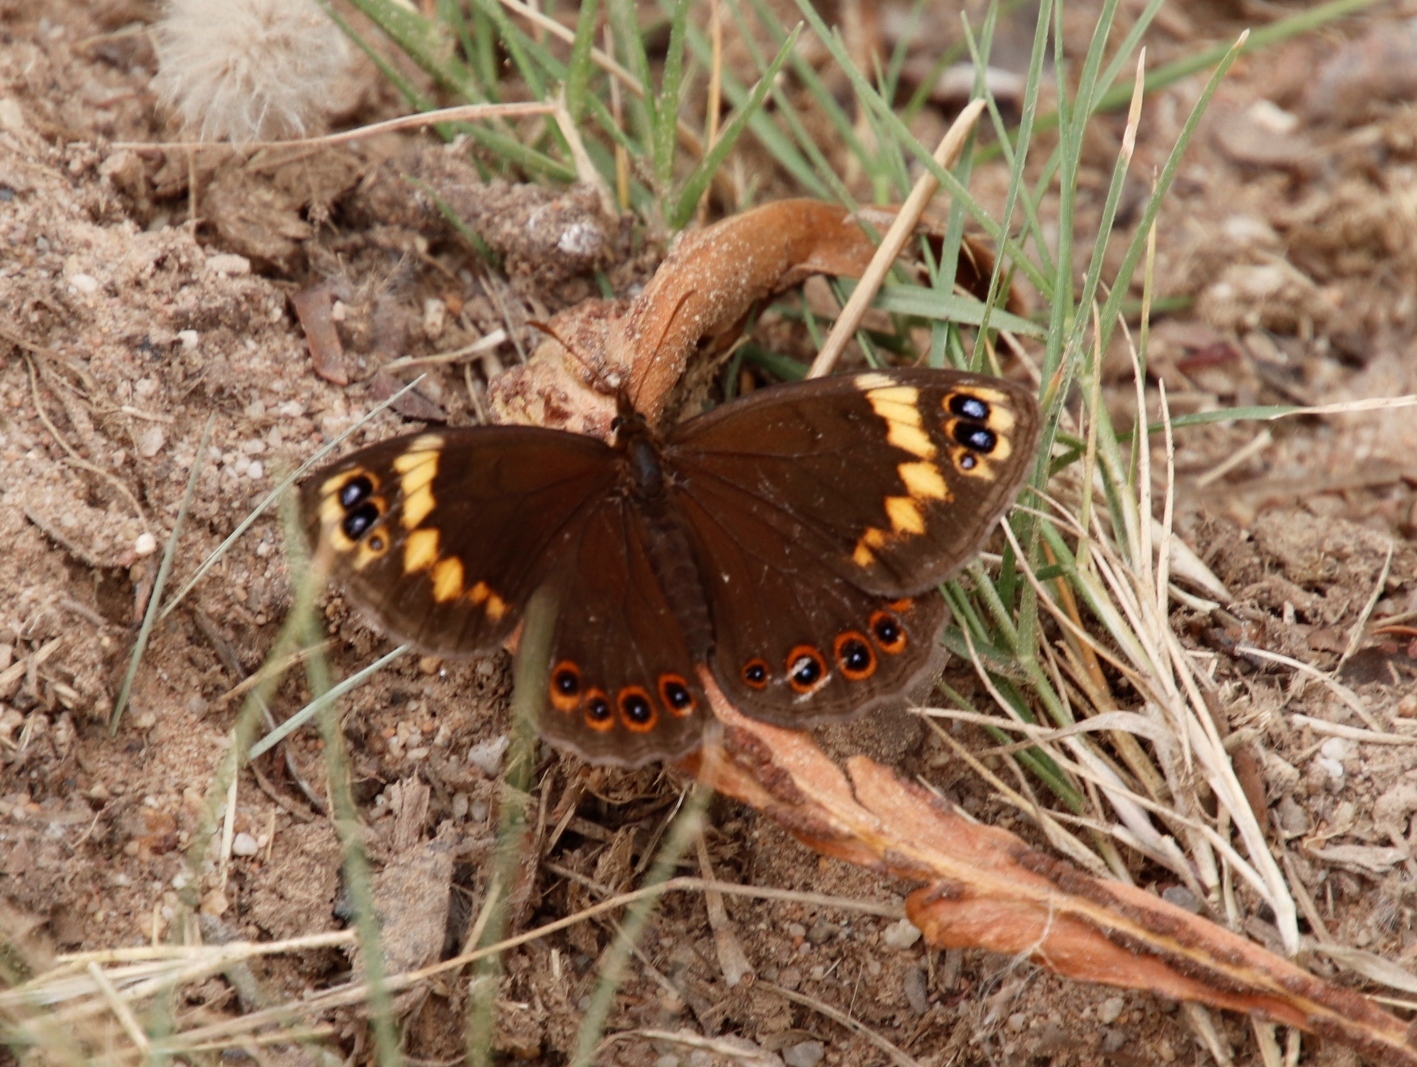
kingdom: Animalia
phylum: Arthropoda
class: Insecta
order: Lepidoptera
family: Nymphalidae
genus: Dira
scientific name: Dira clytus
